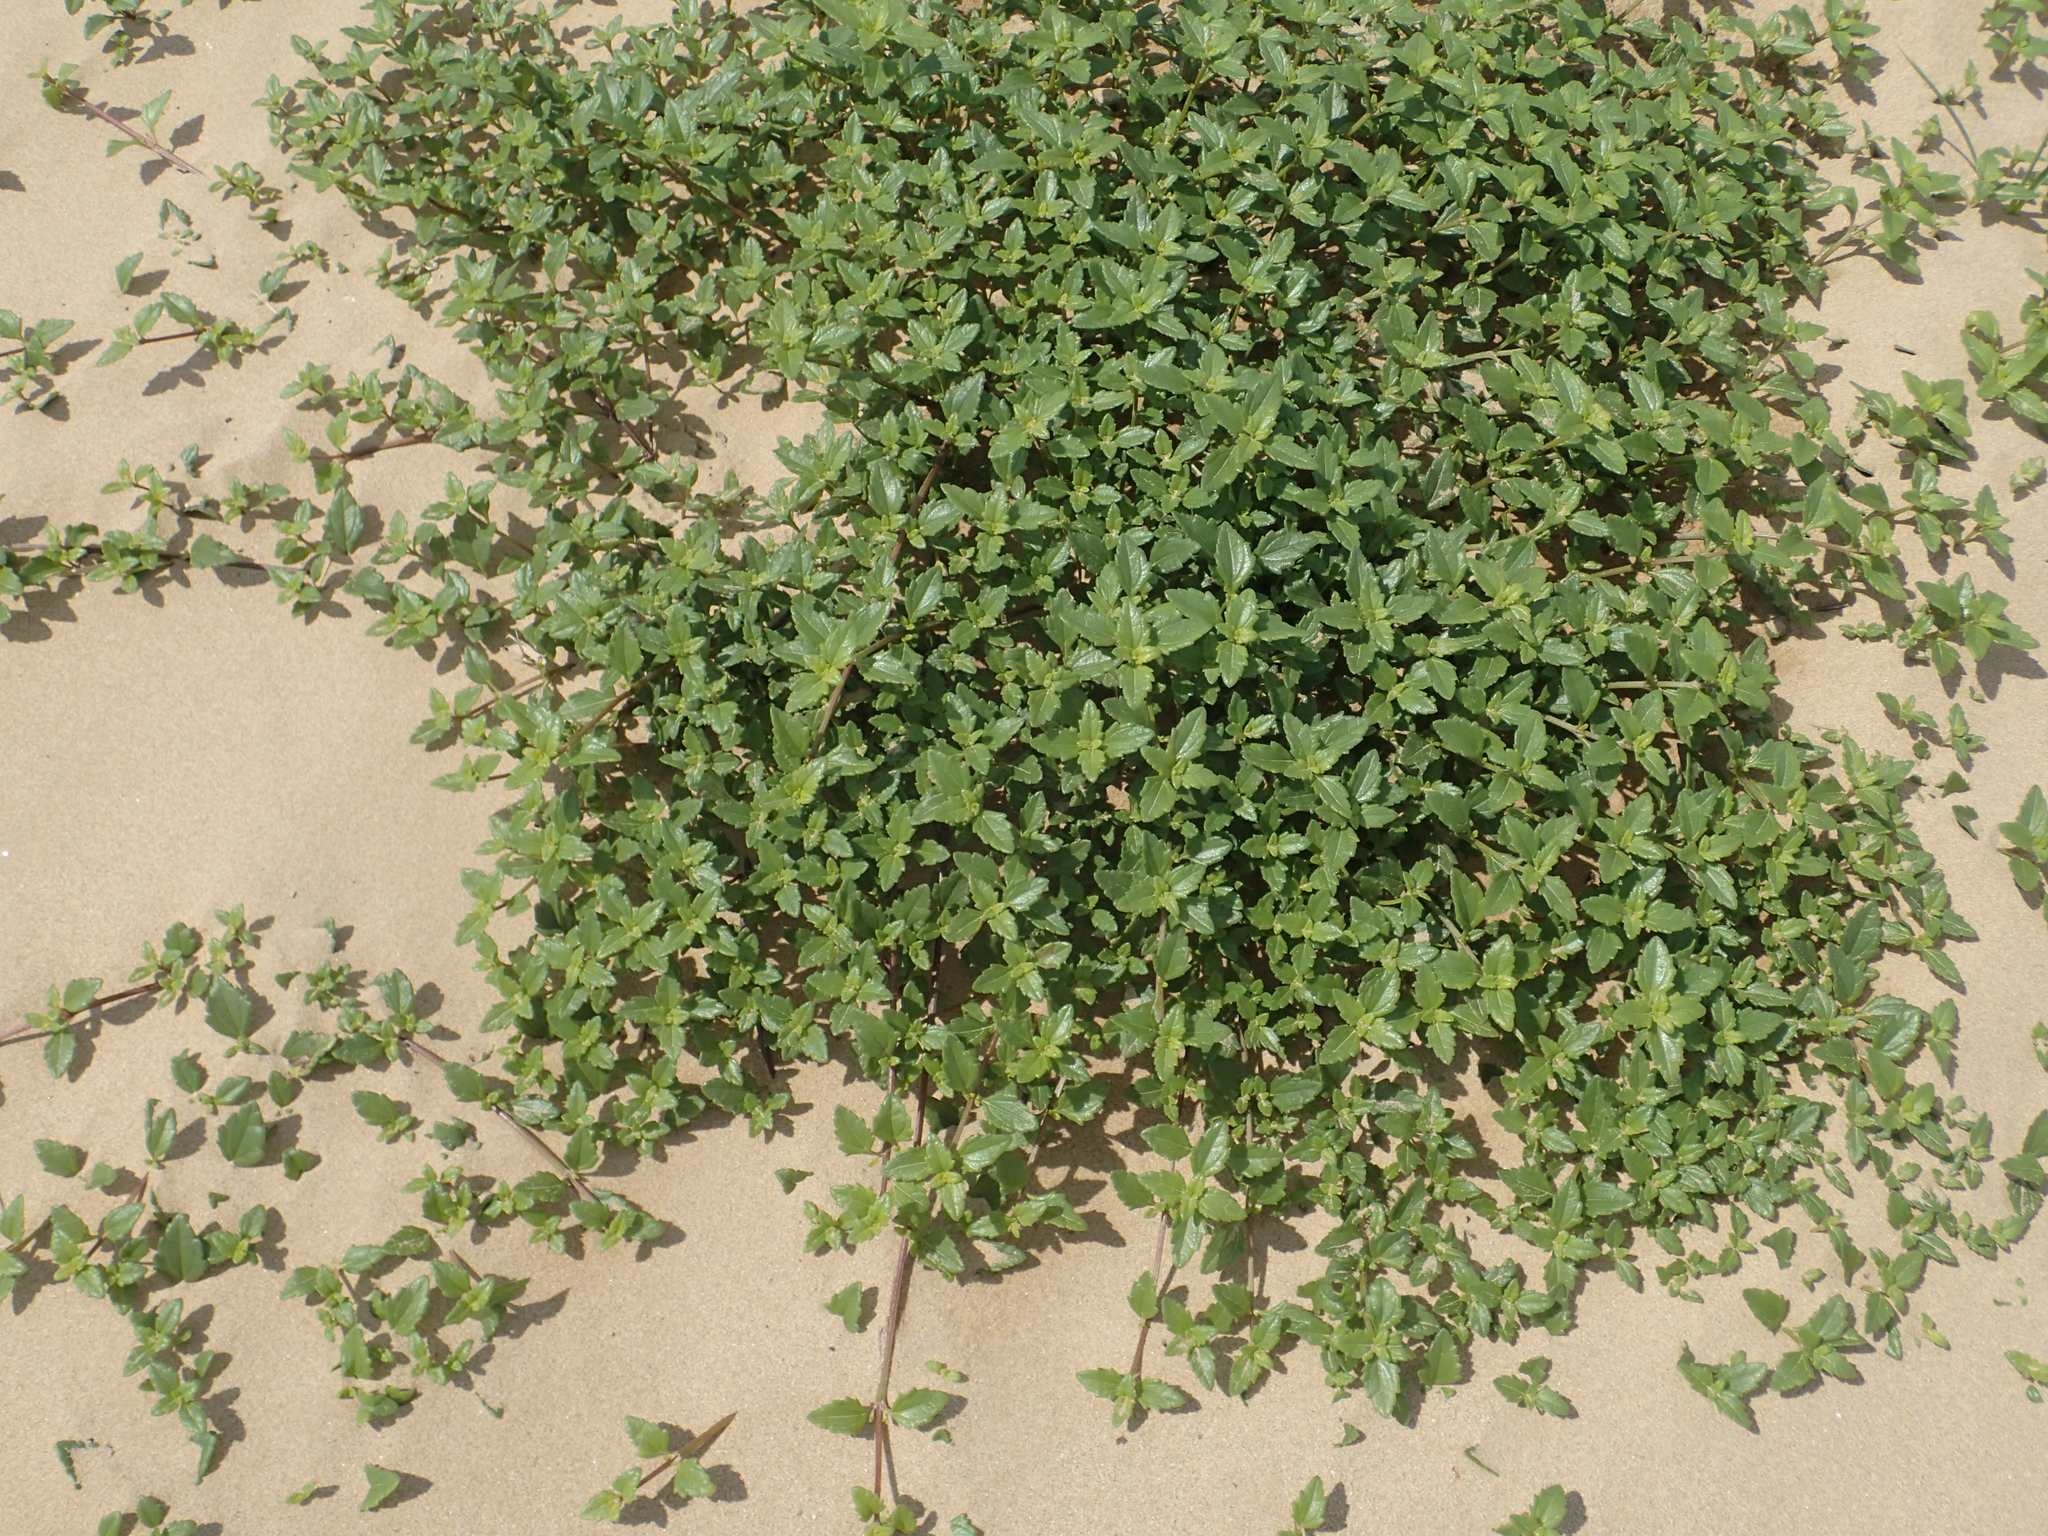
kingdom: Plantae
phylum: Tracheophyta
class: Magnoliopsida
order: Asterales
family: Asteraceae
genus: Melanthera
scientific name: Melanthera prostrata
